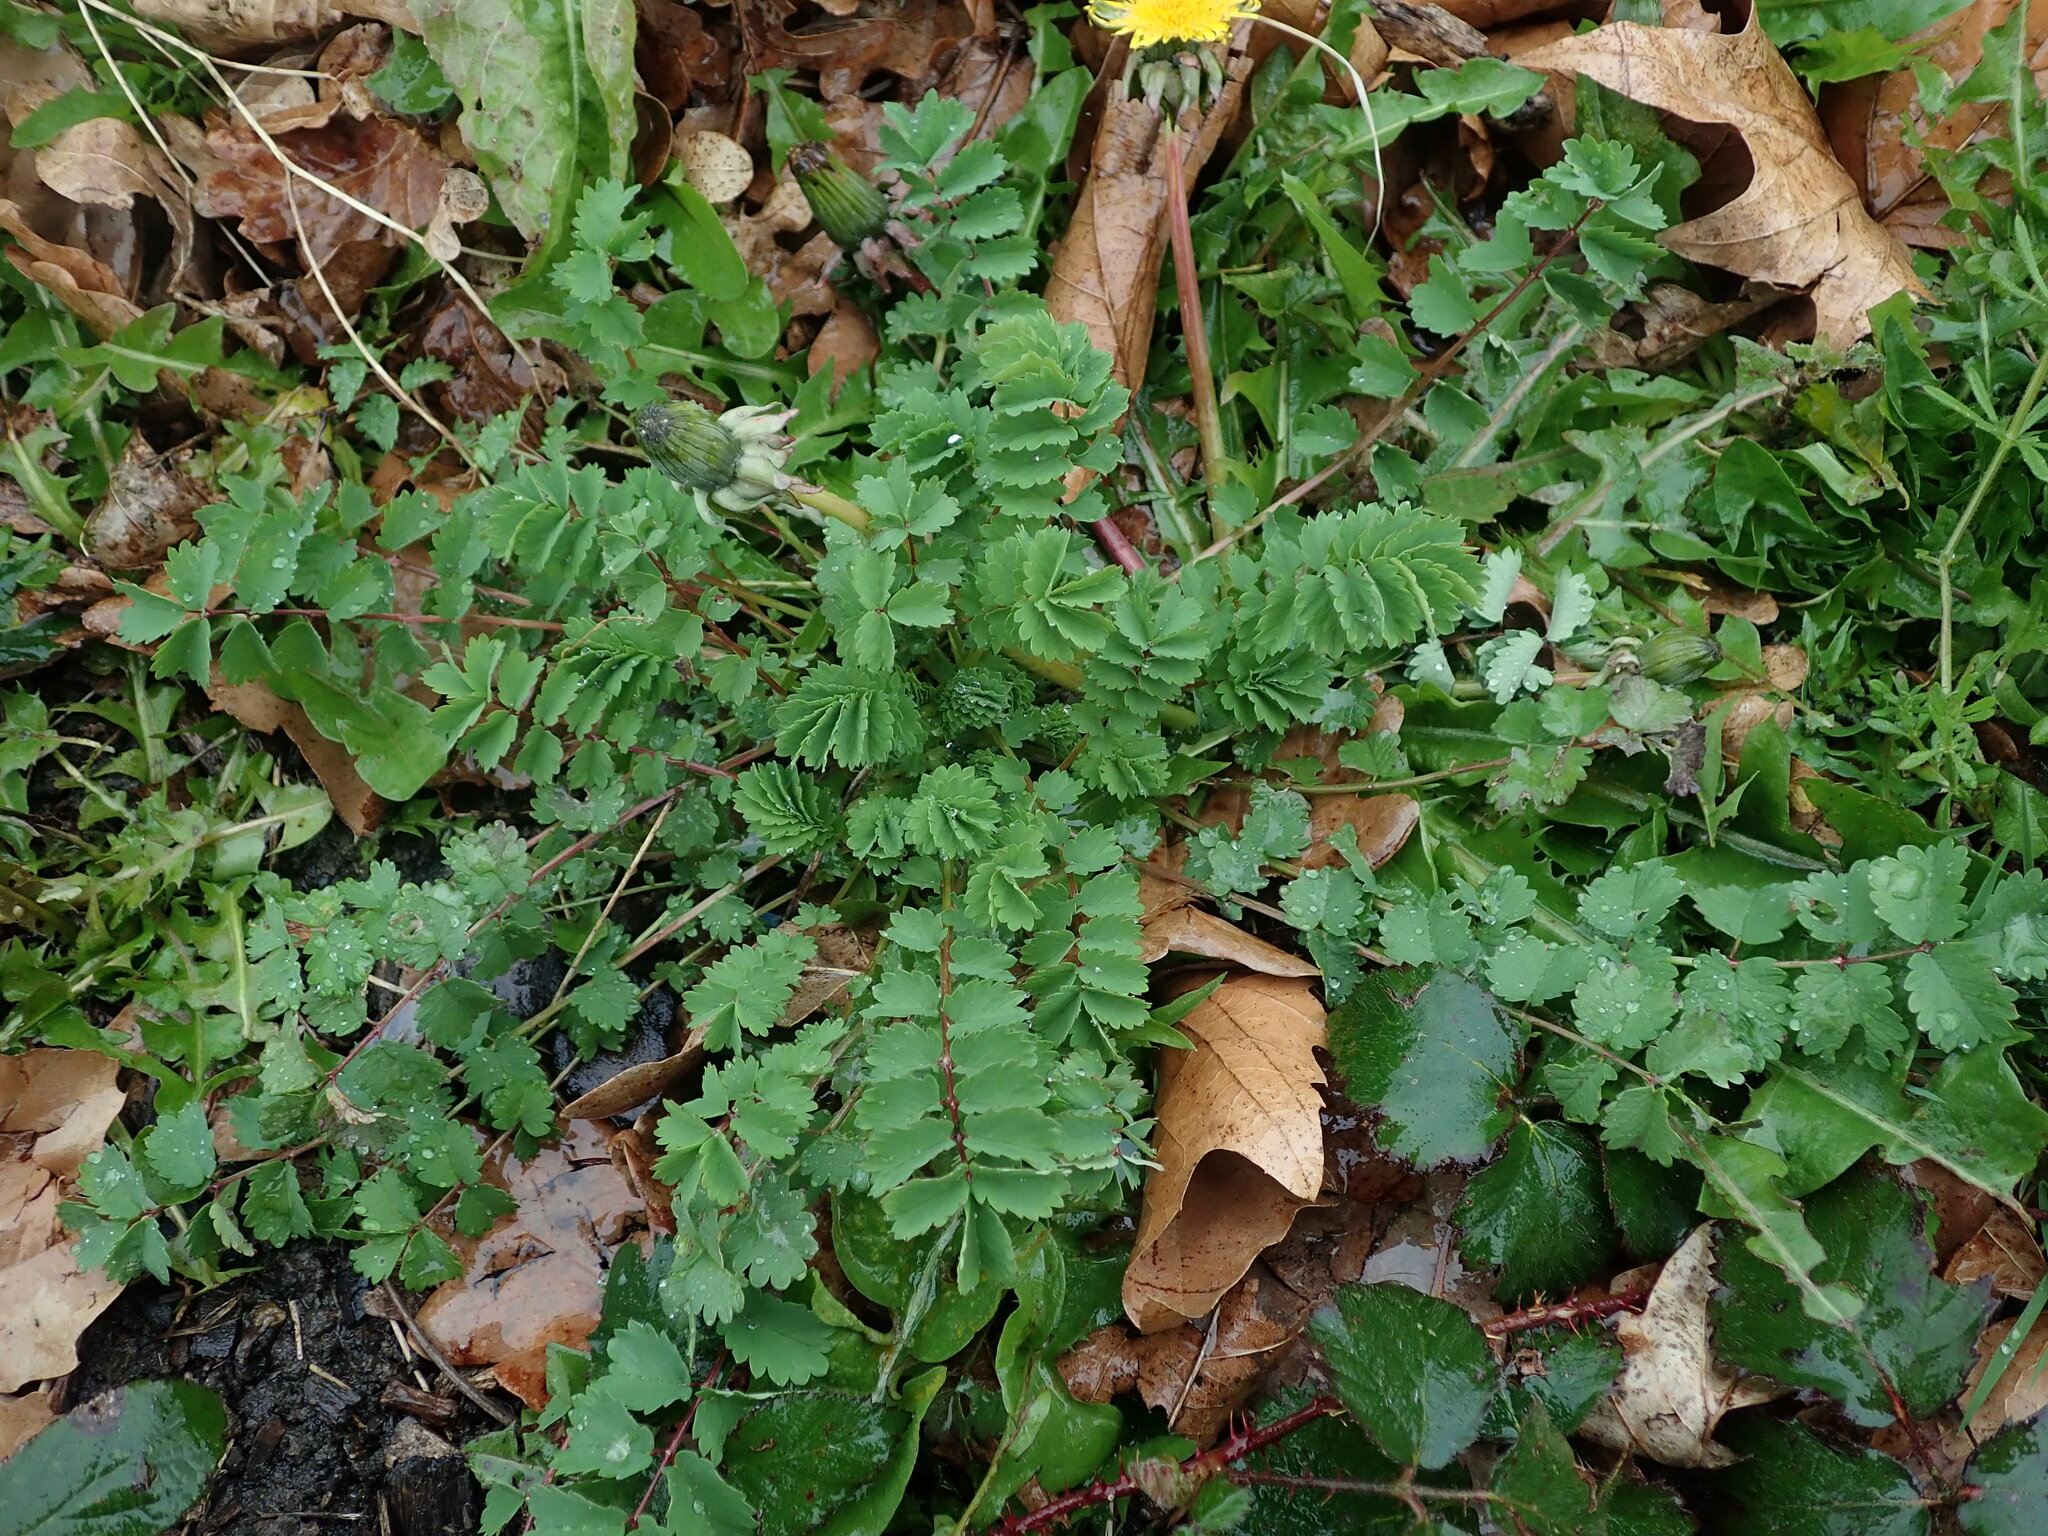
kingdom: Plantae
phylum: Tracheophyta
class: Magnoliopsida
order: Rosales
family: Rosaceae
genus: Poterium
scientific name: Poterium sanguisorba
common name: Salad burnet
